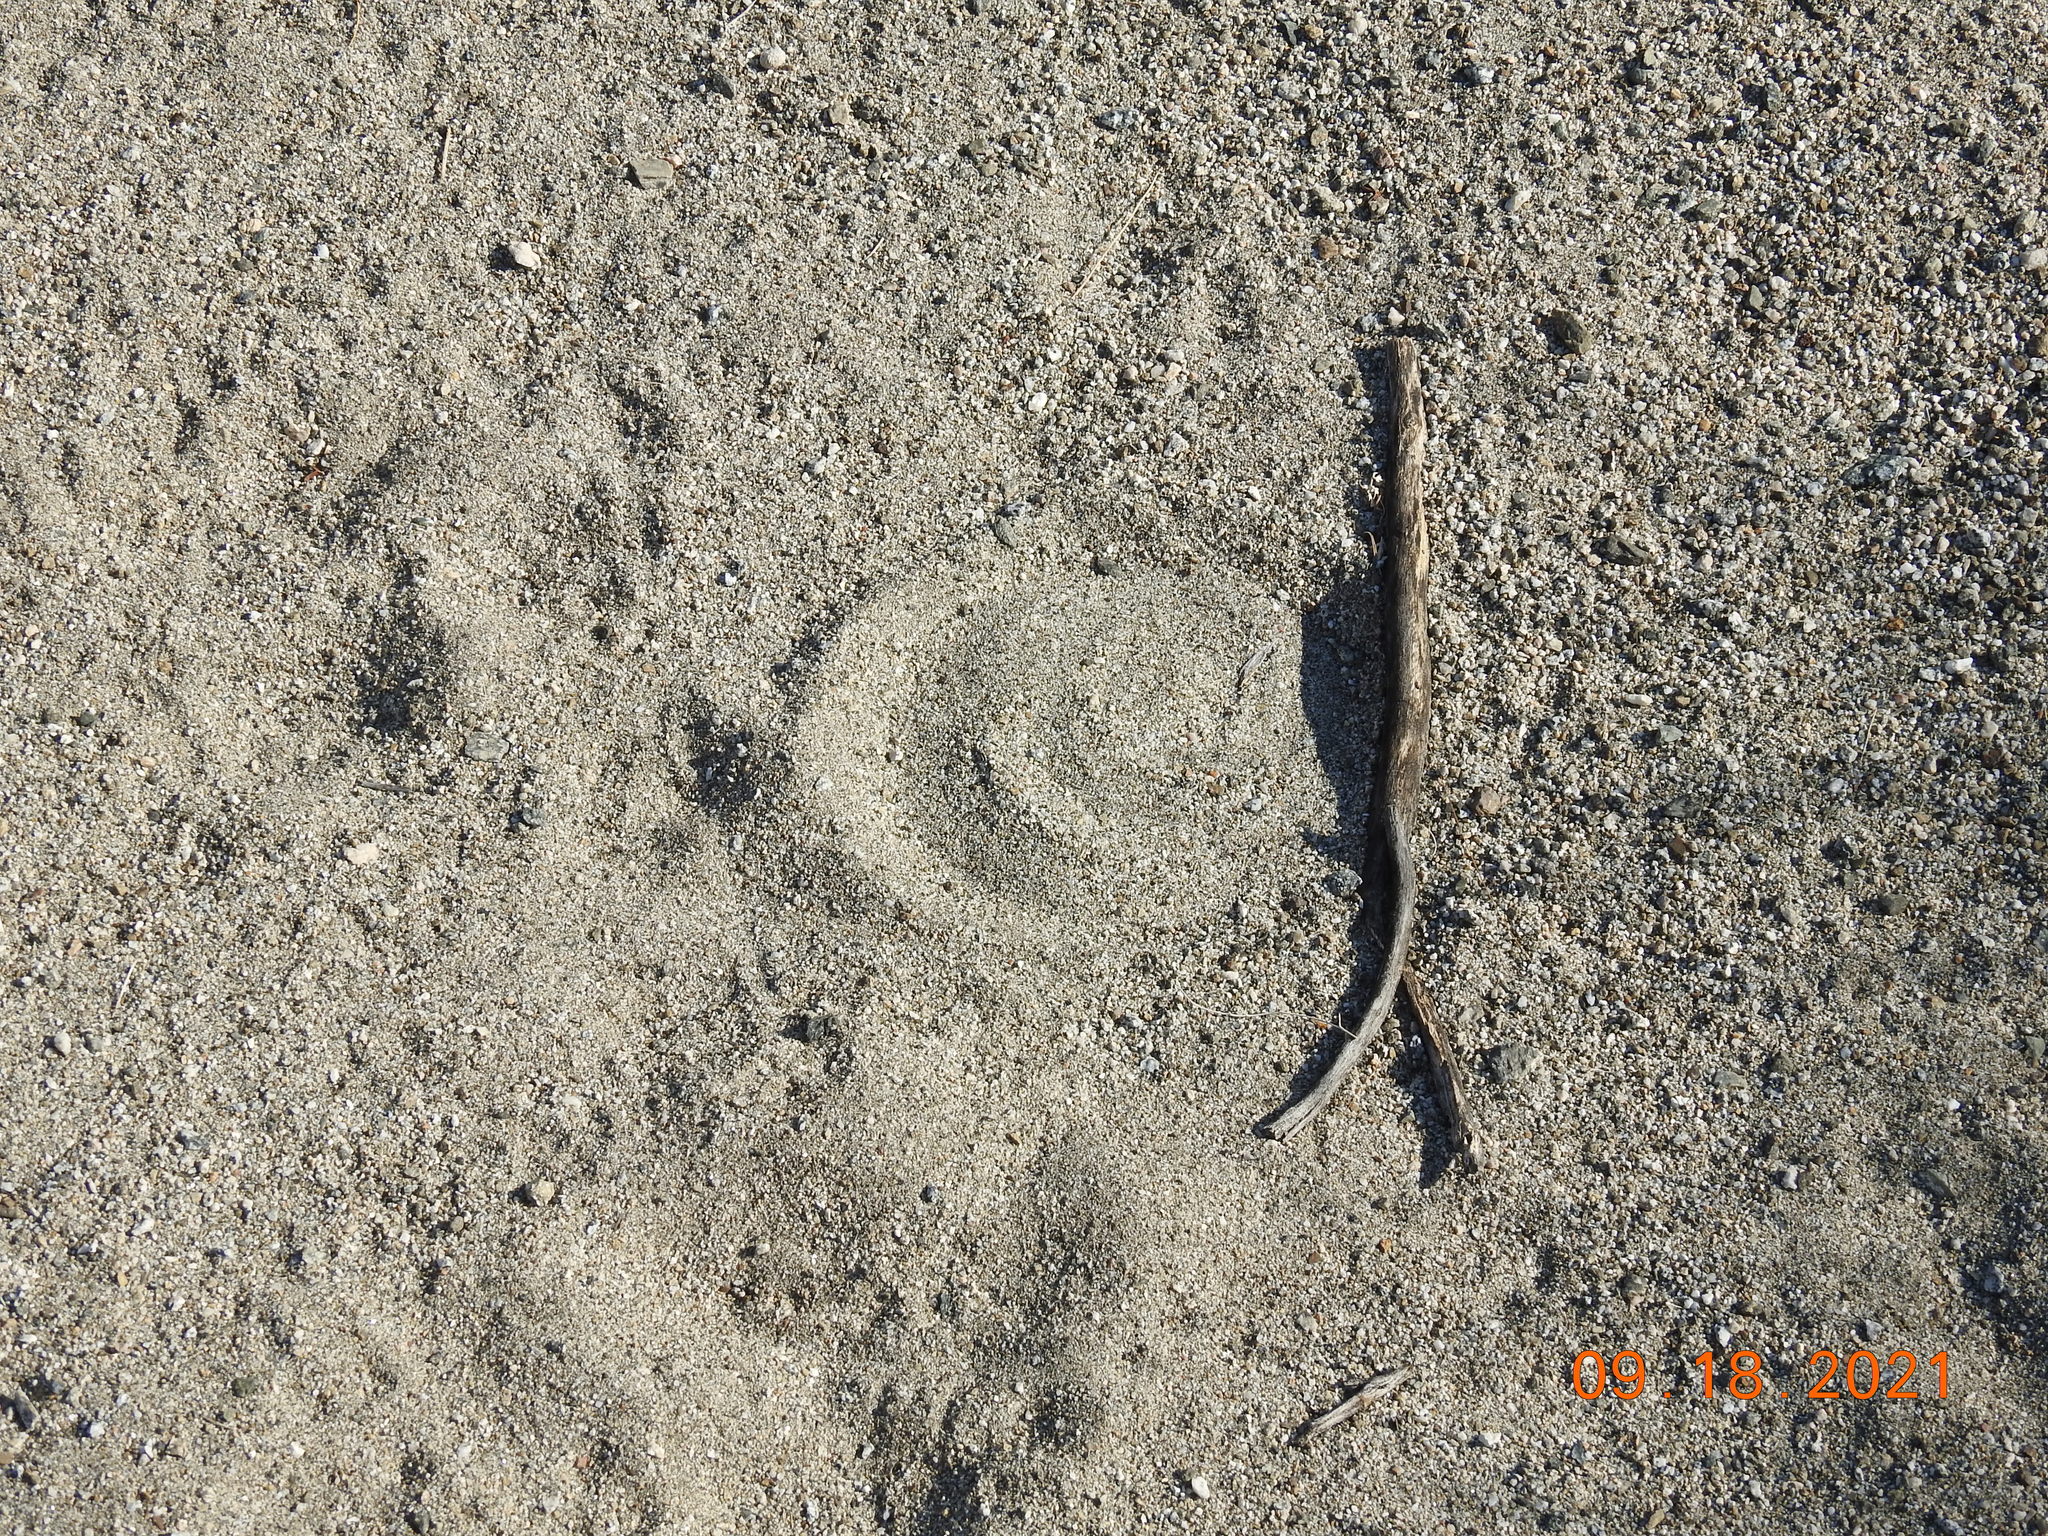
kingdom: Animalia
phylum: Chordata
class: Squamata
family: Viperidae
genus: Crotalus
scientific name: Crotalus cerastes
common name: Sidewinder
